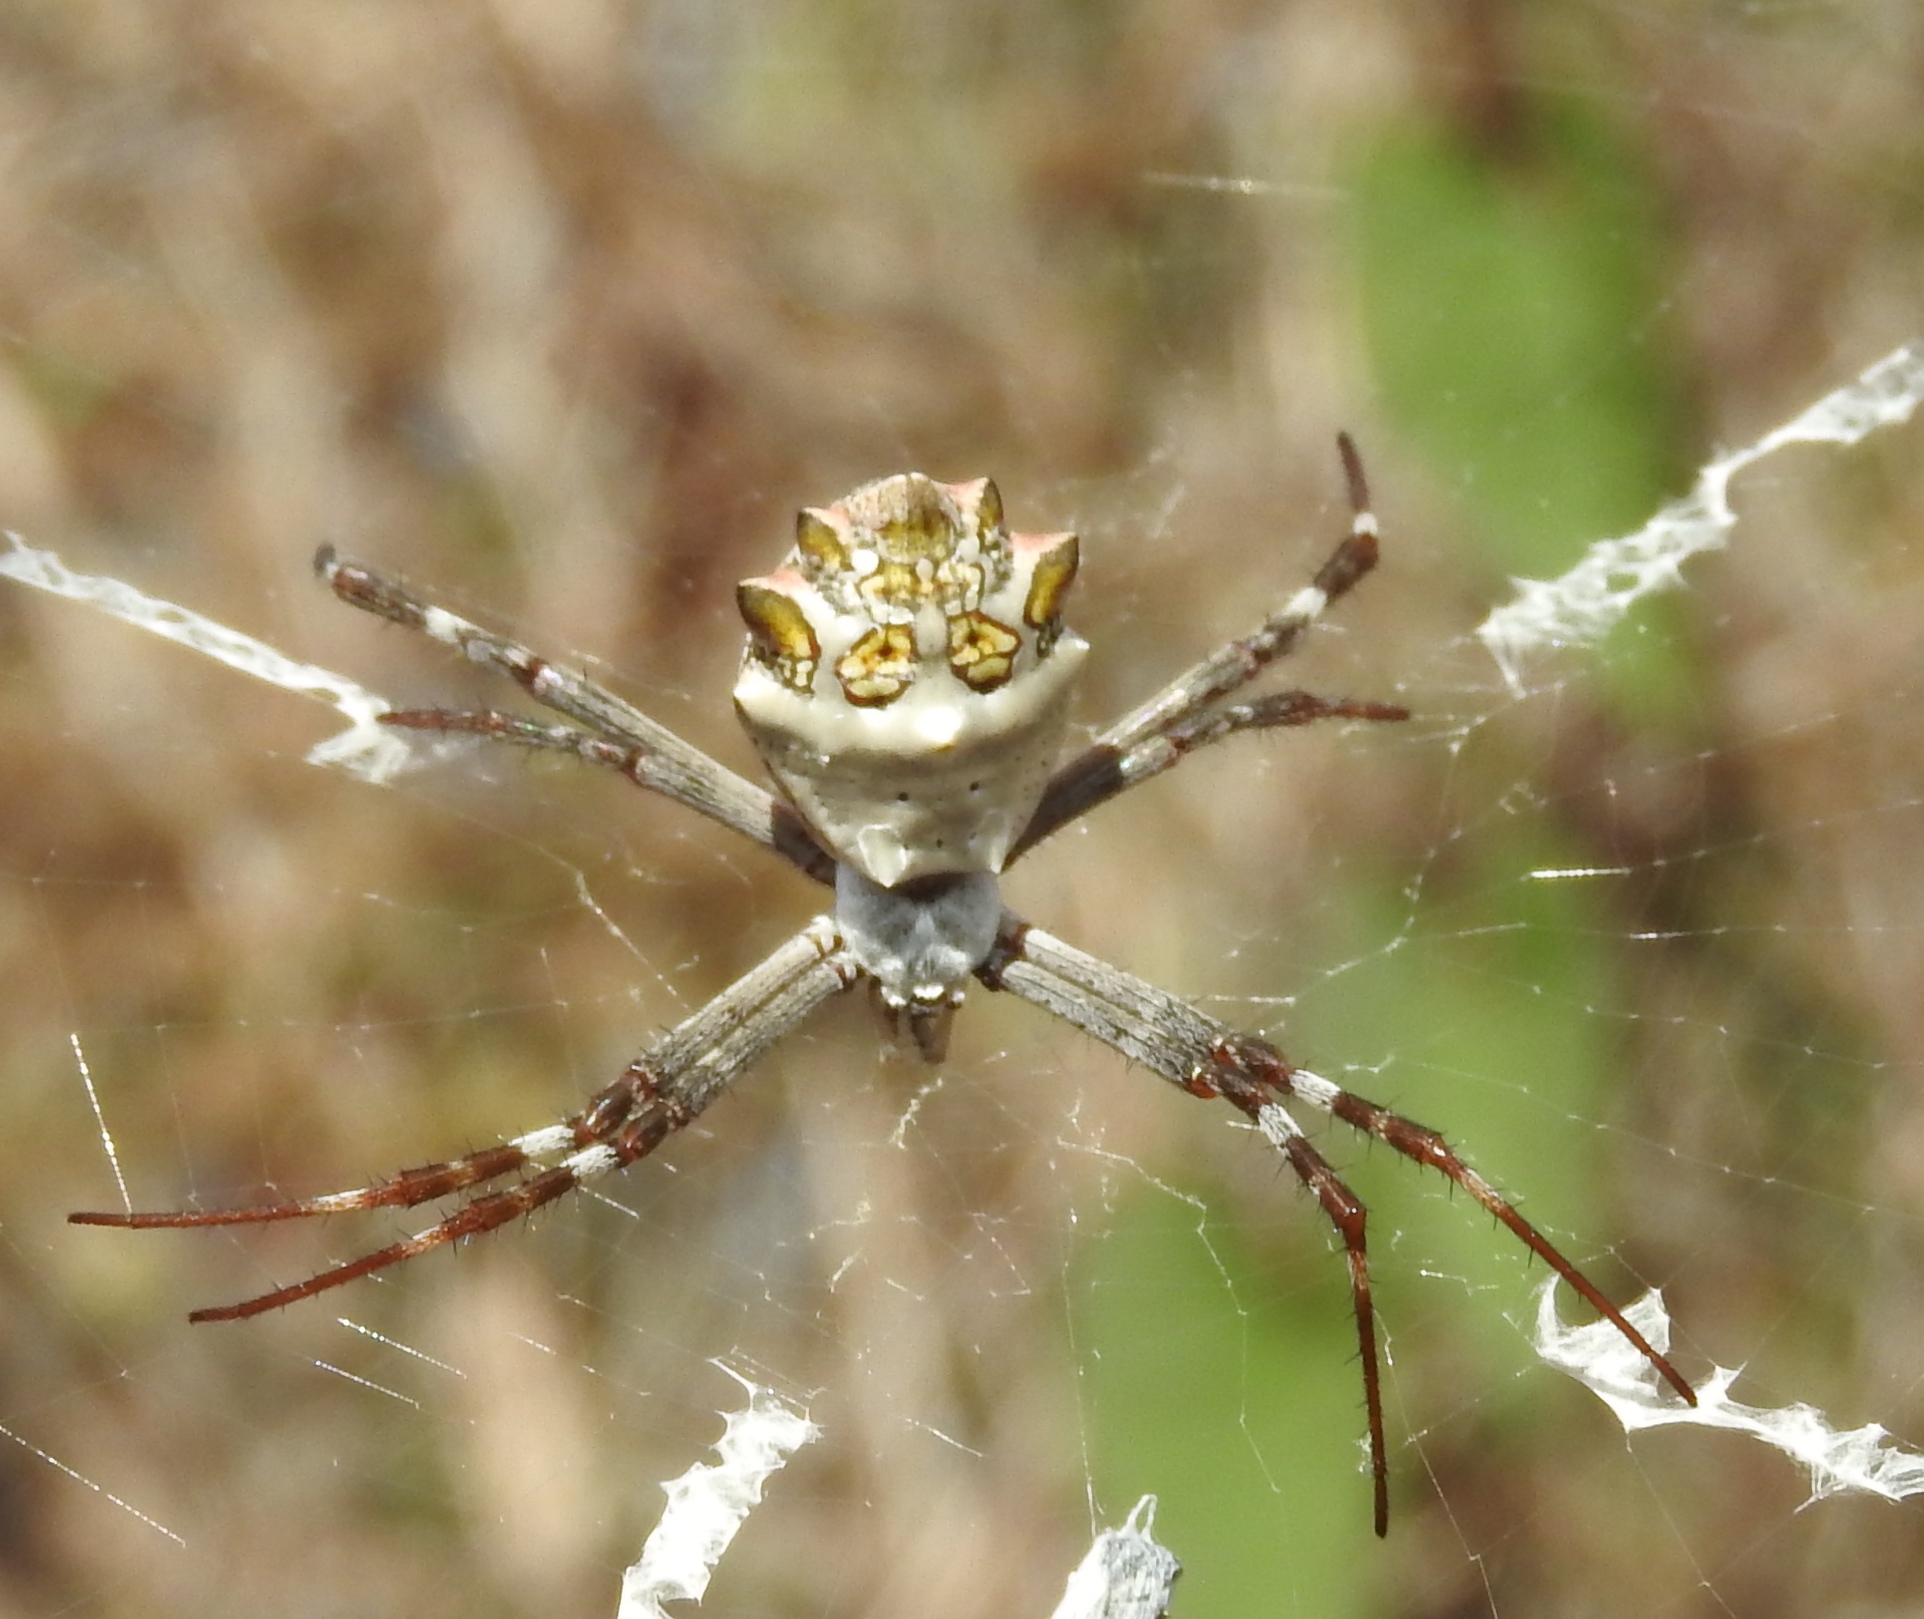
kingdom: Animalia
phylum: Arthropoda
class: Arachnida
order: Araneae
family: Araneidae
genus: Argiope
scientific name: Argiope argentata
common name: Orb weavers
